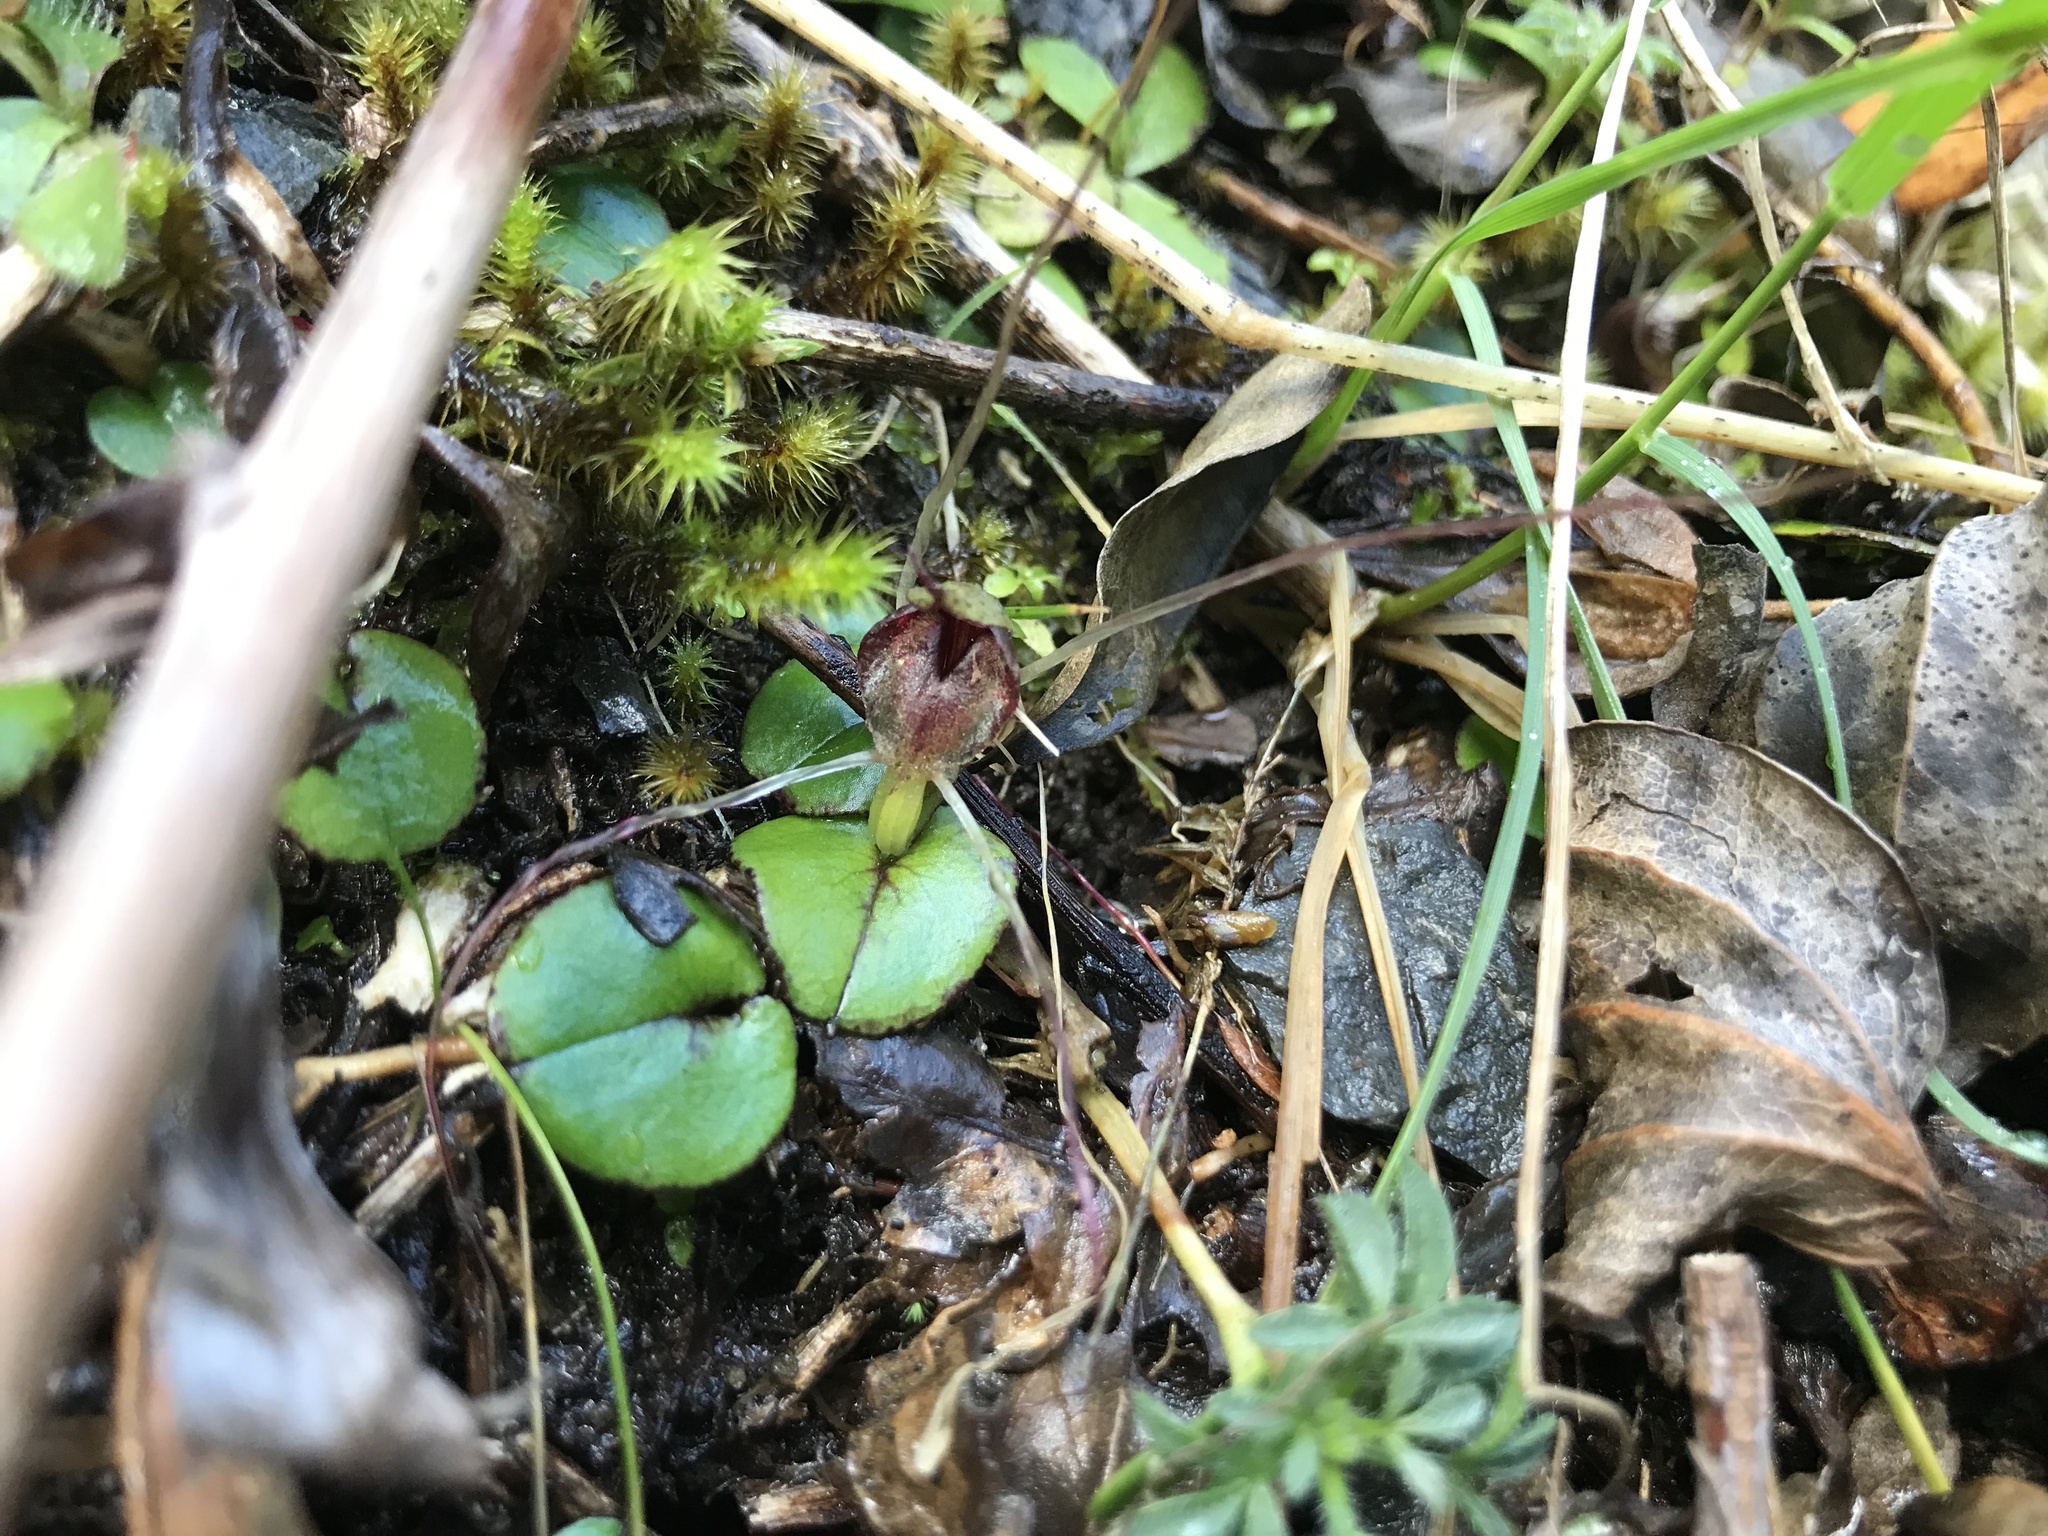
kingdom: Plantae
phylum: Tracheophyta
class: Liliopsida
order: Asparagales
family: Orchidaceae
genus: Corybas
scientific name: Corybas hatchii
